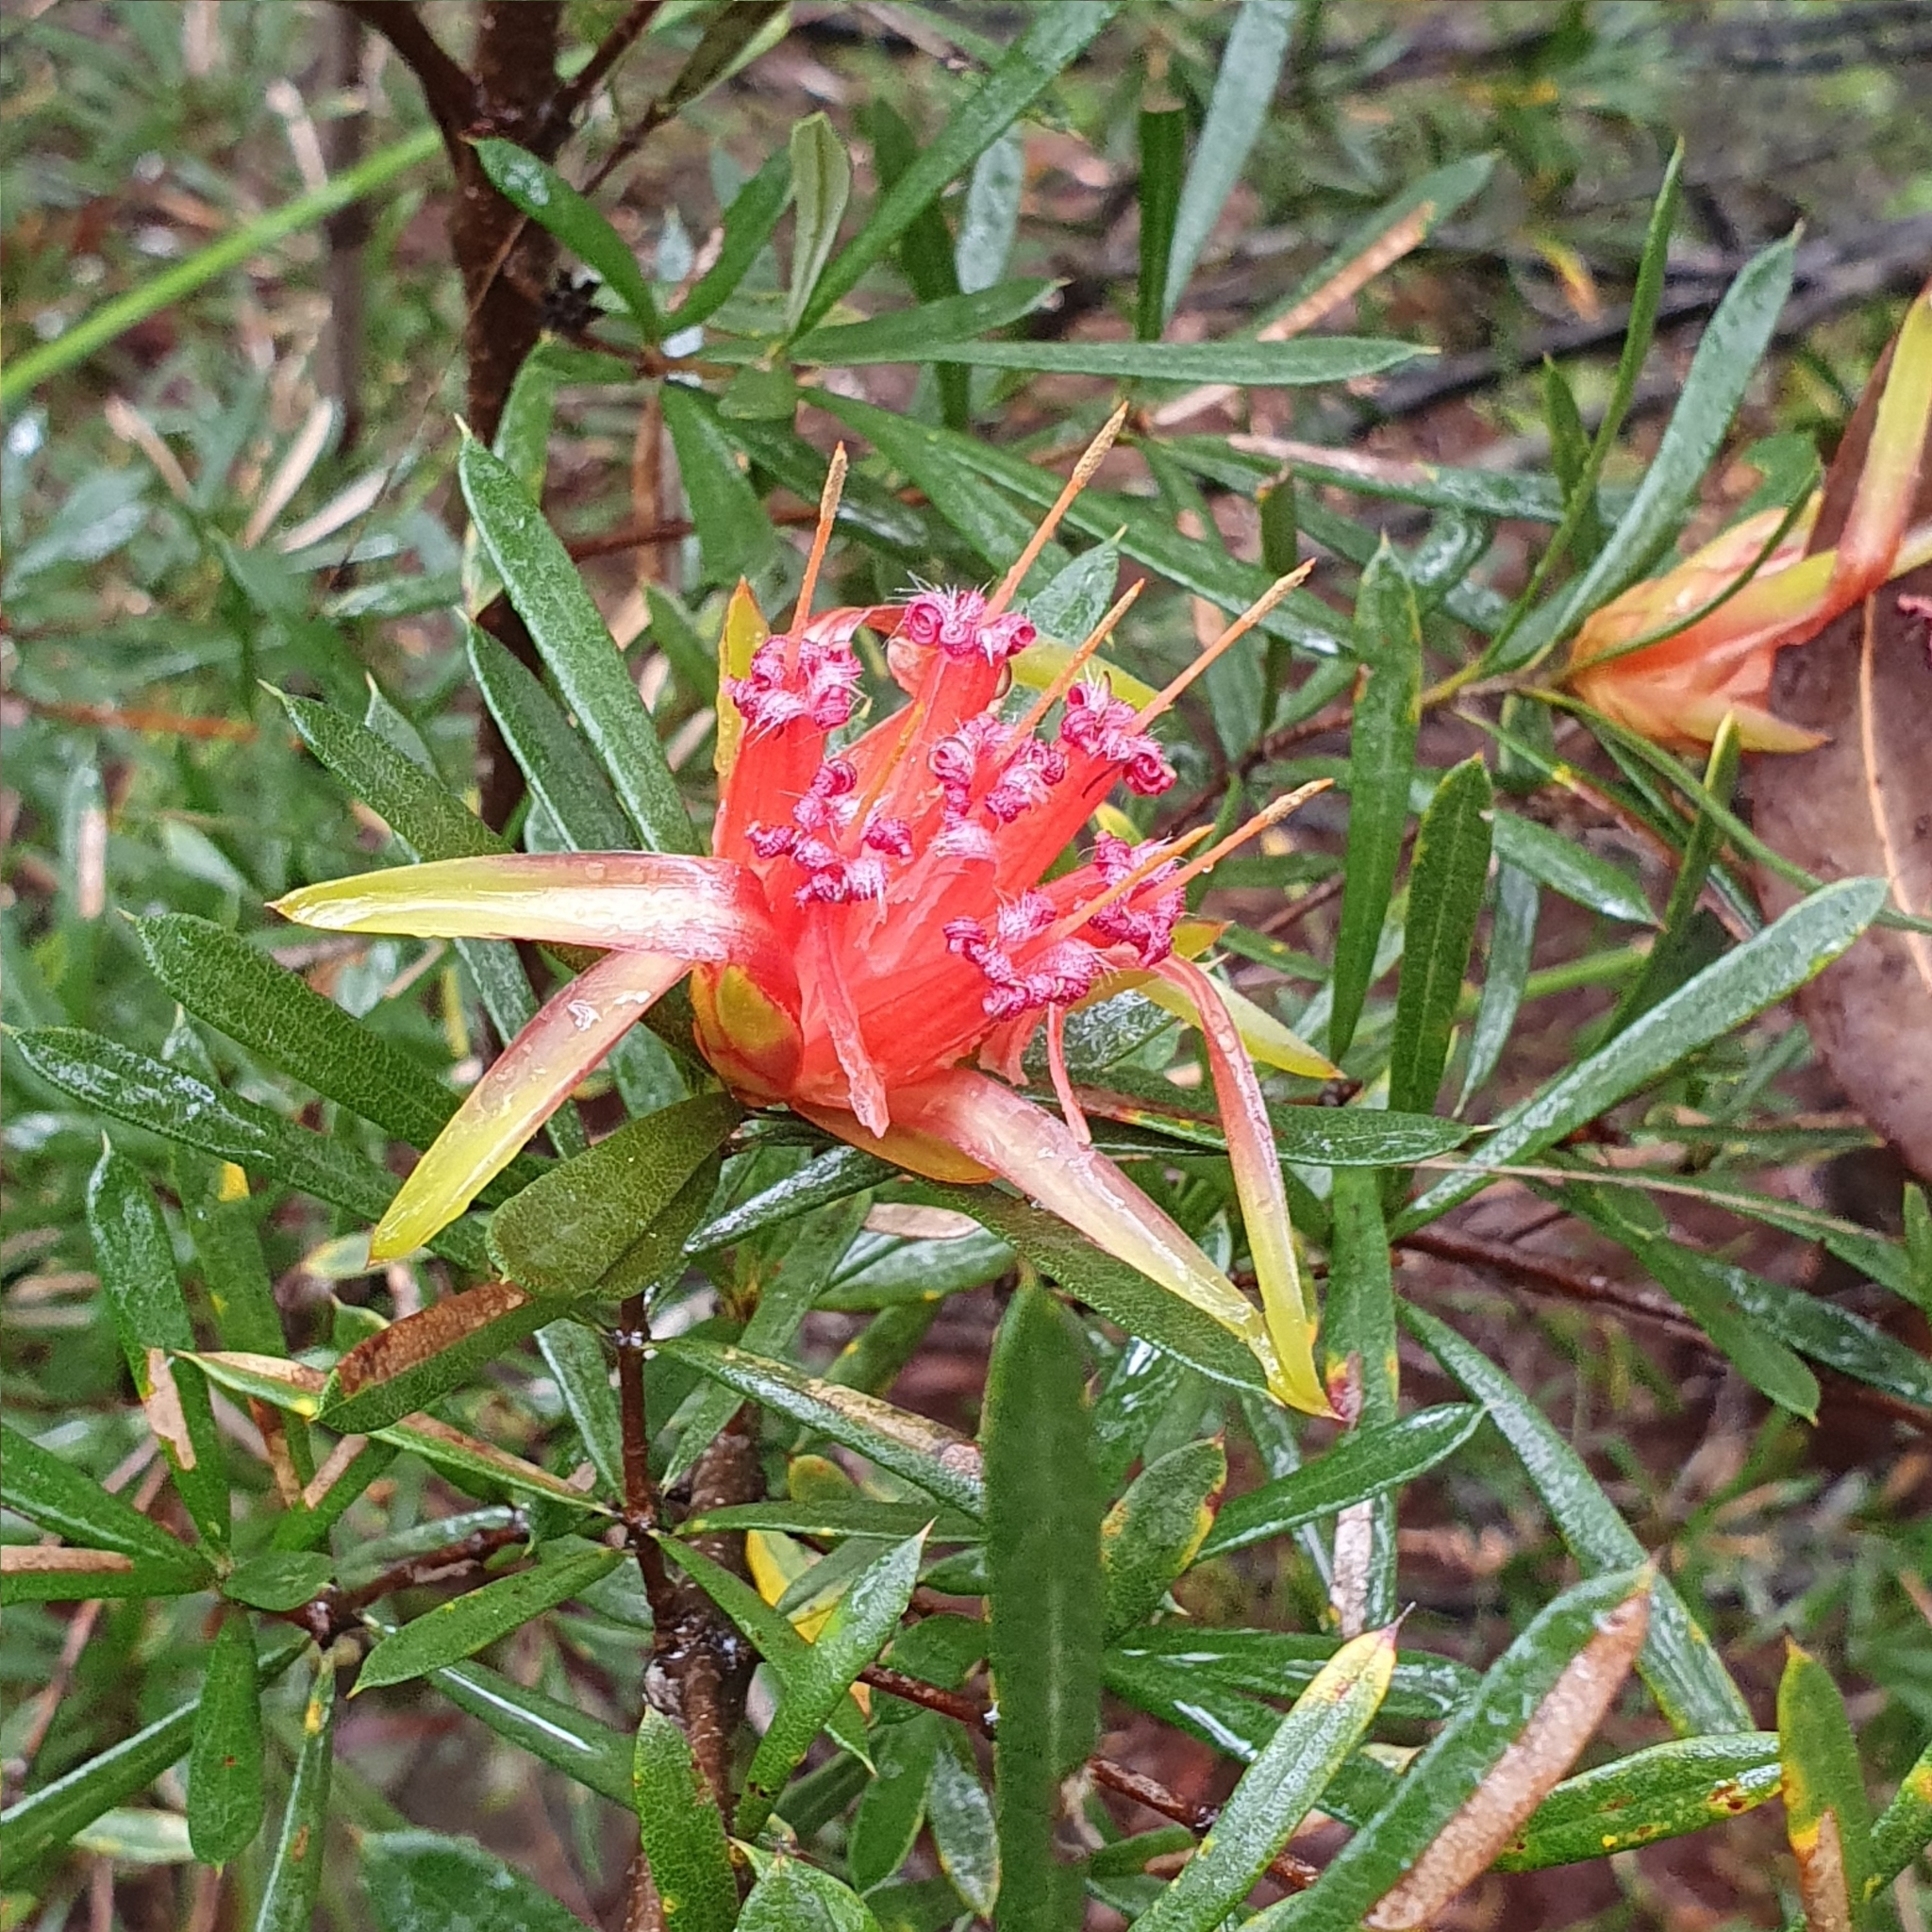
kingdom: Plantae
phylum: Tracheophyta
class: Magnoliopsida
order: Proteales
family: Proteaceae
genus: Lambertia
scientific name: Lambertia formosa
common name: Mountain-devil
